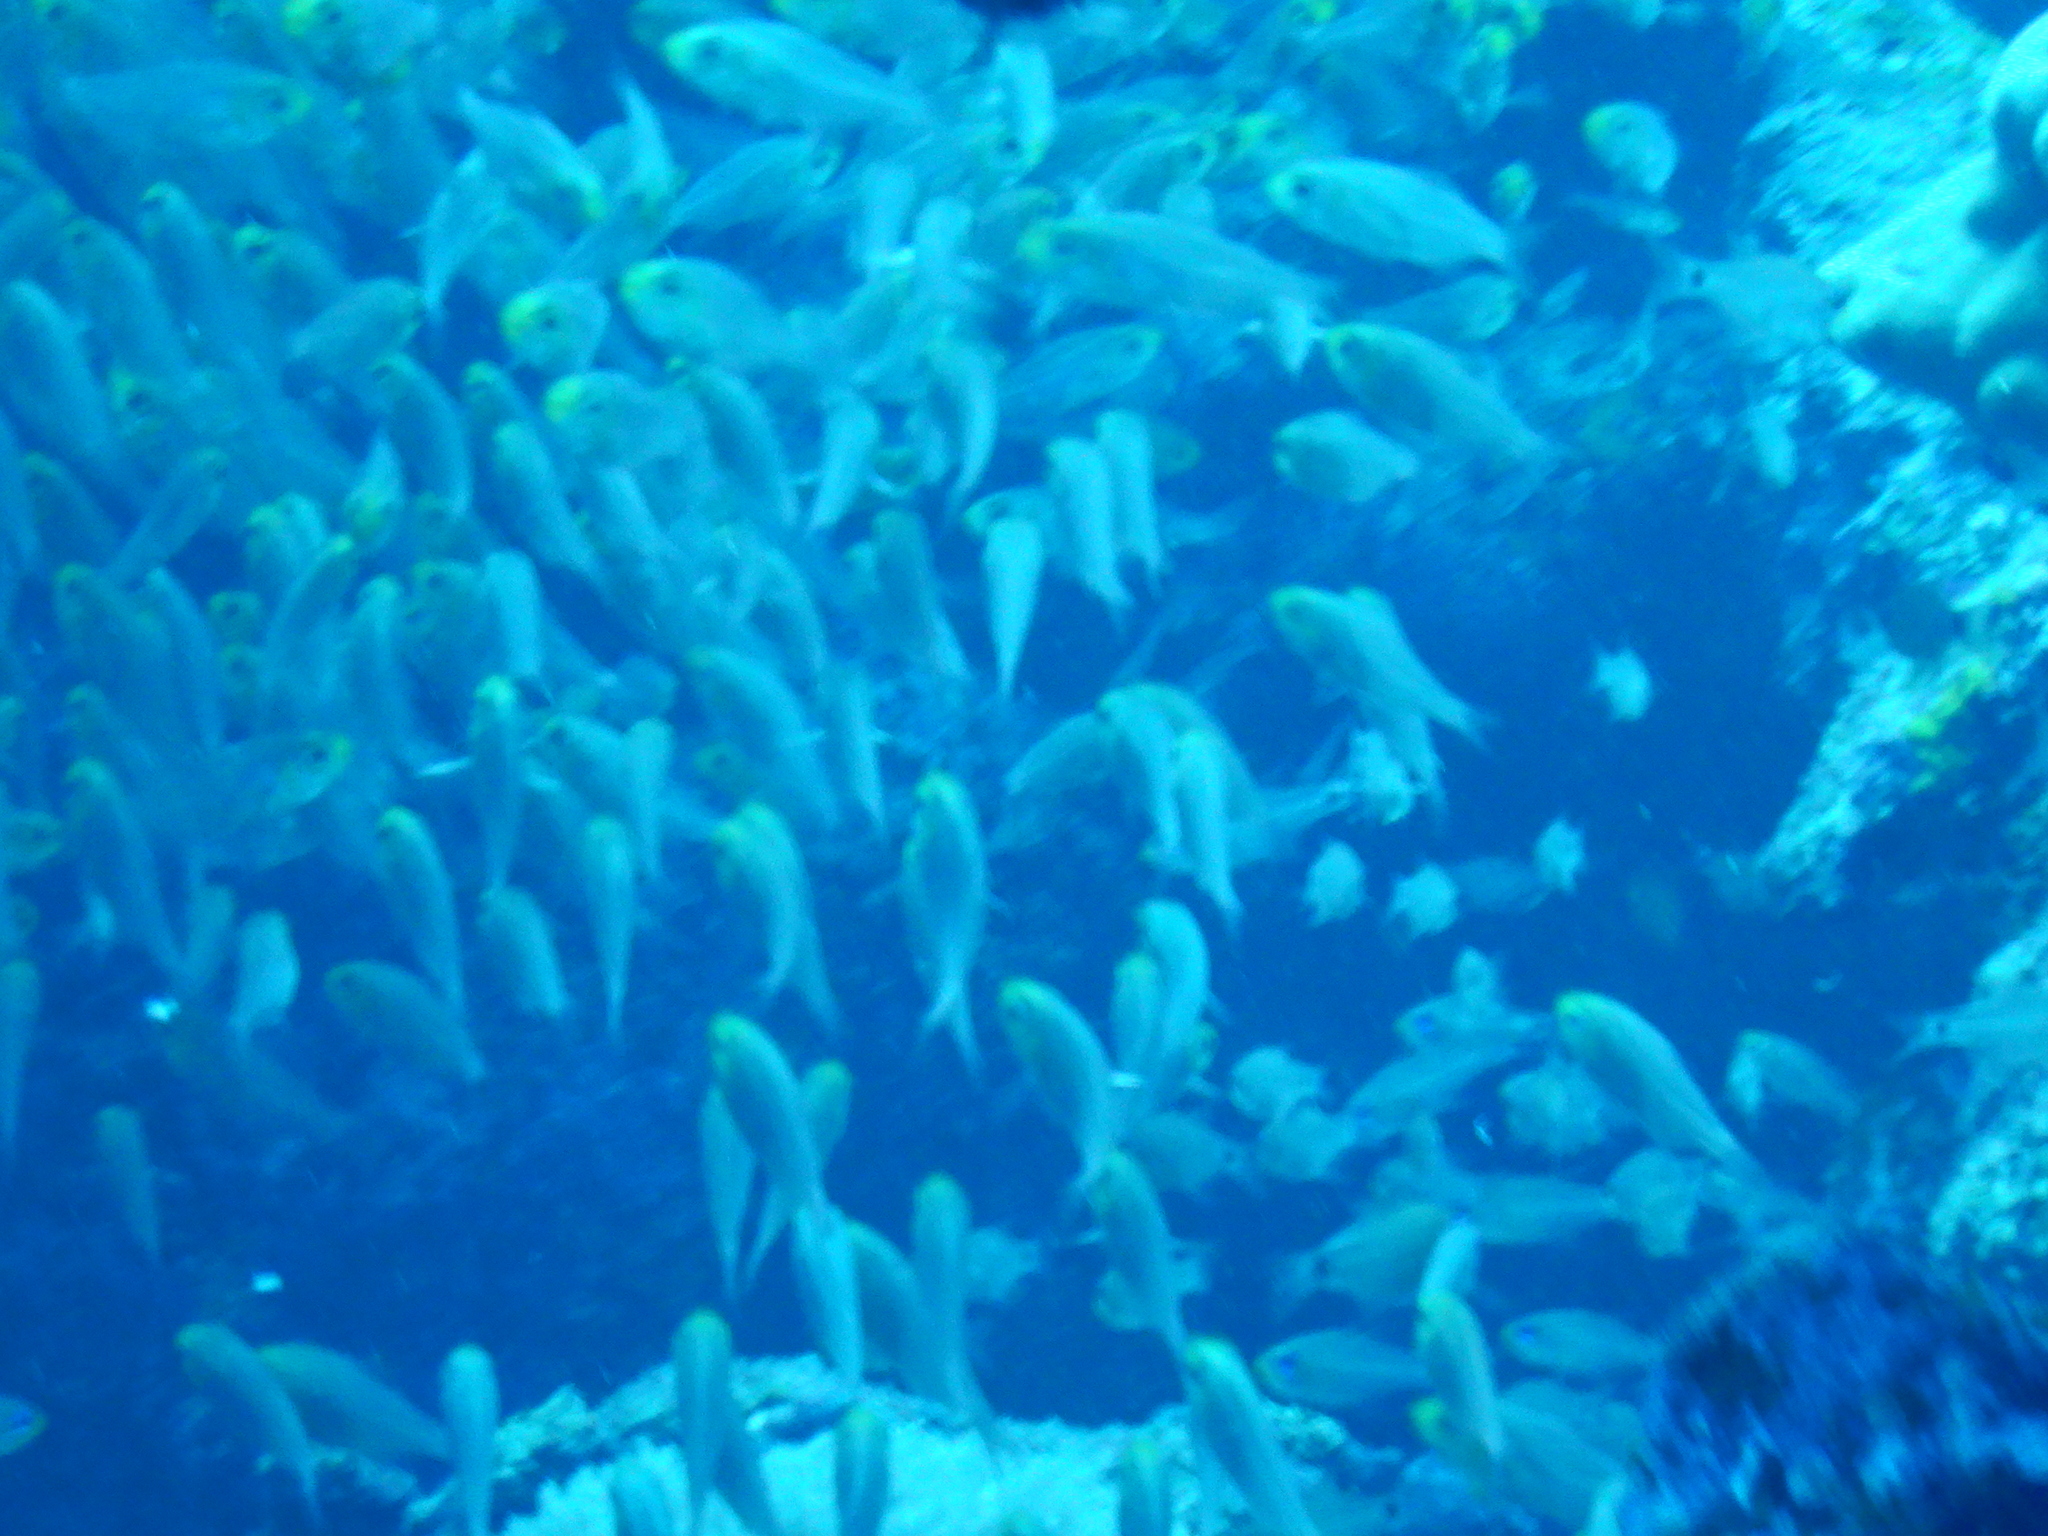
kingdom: Animalia
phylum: Chordata
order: Perciformes
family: Pempheridae
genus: Parapriacanthus
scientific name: Parapriacanthus guentheri
